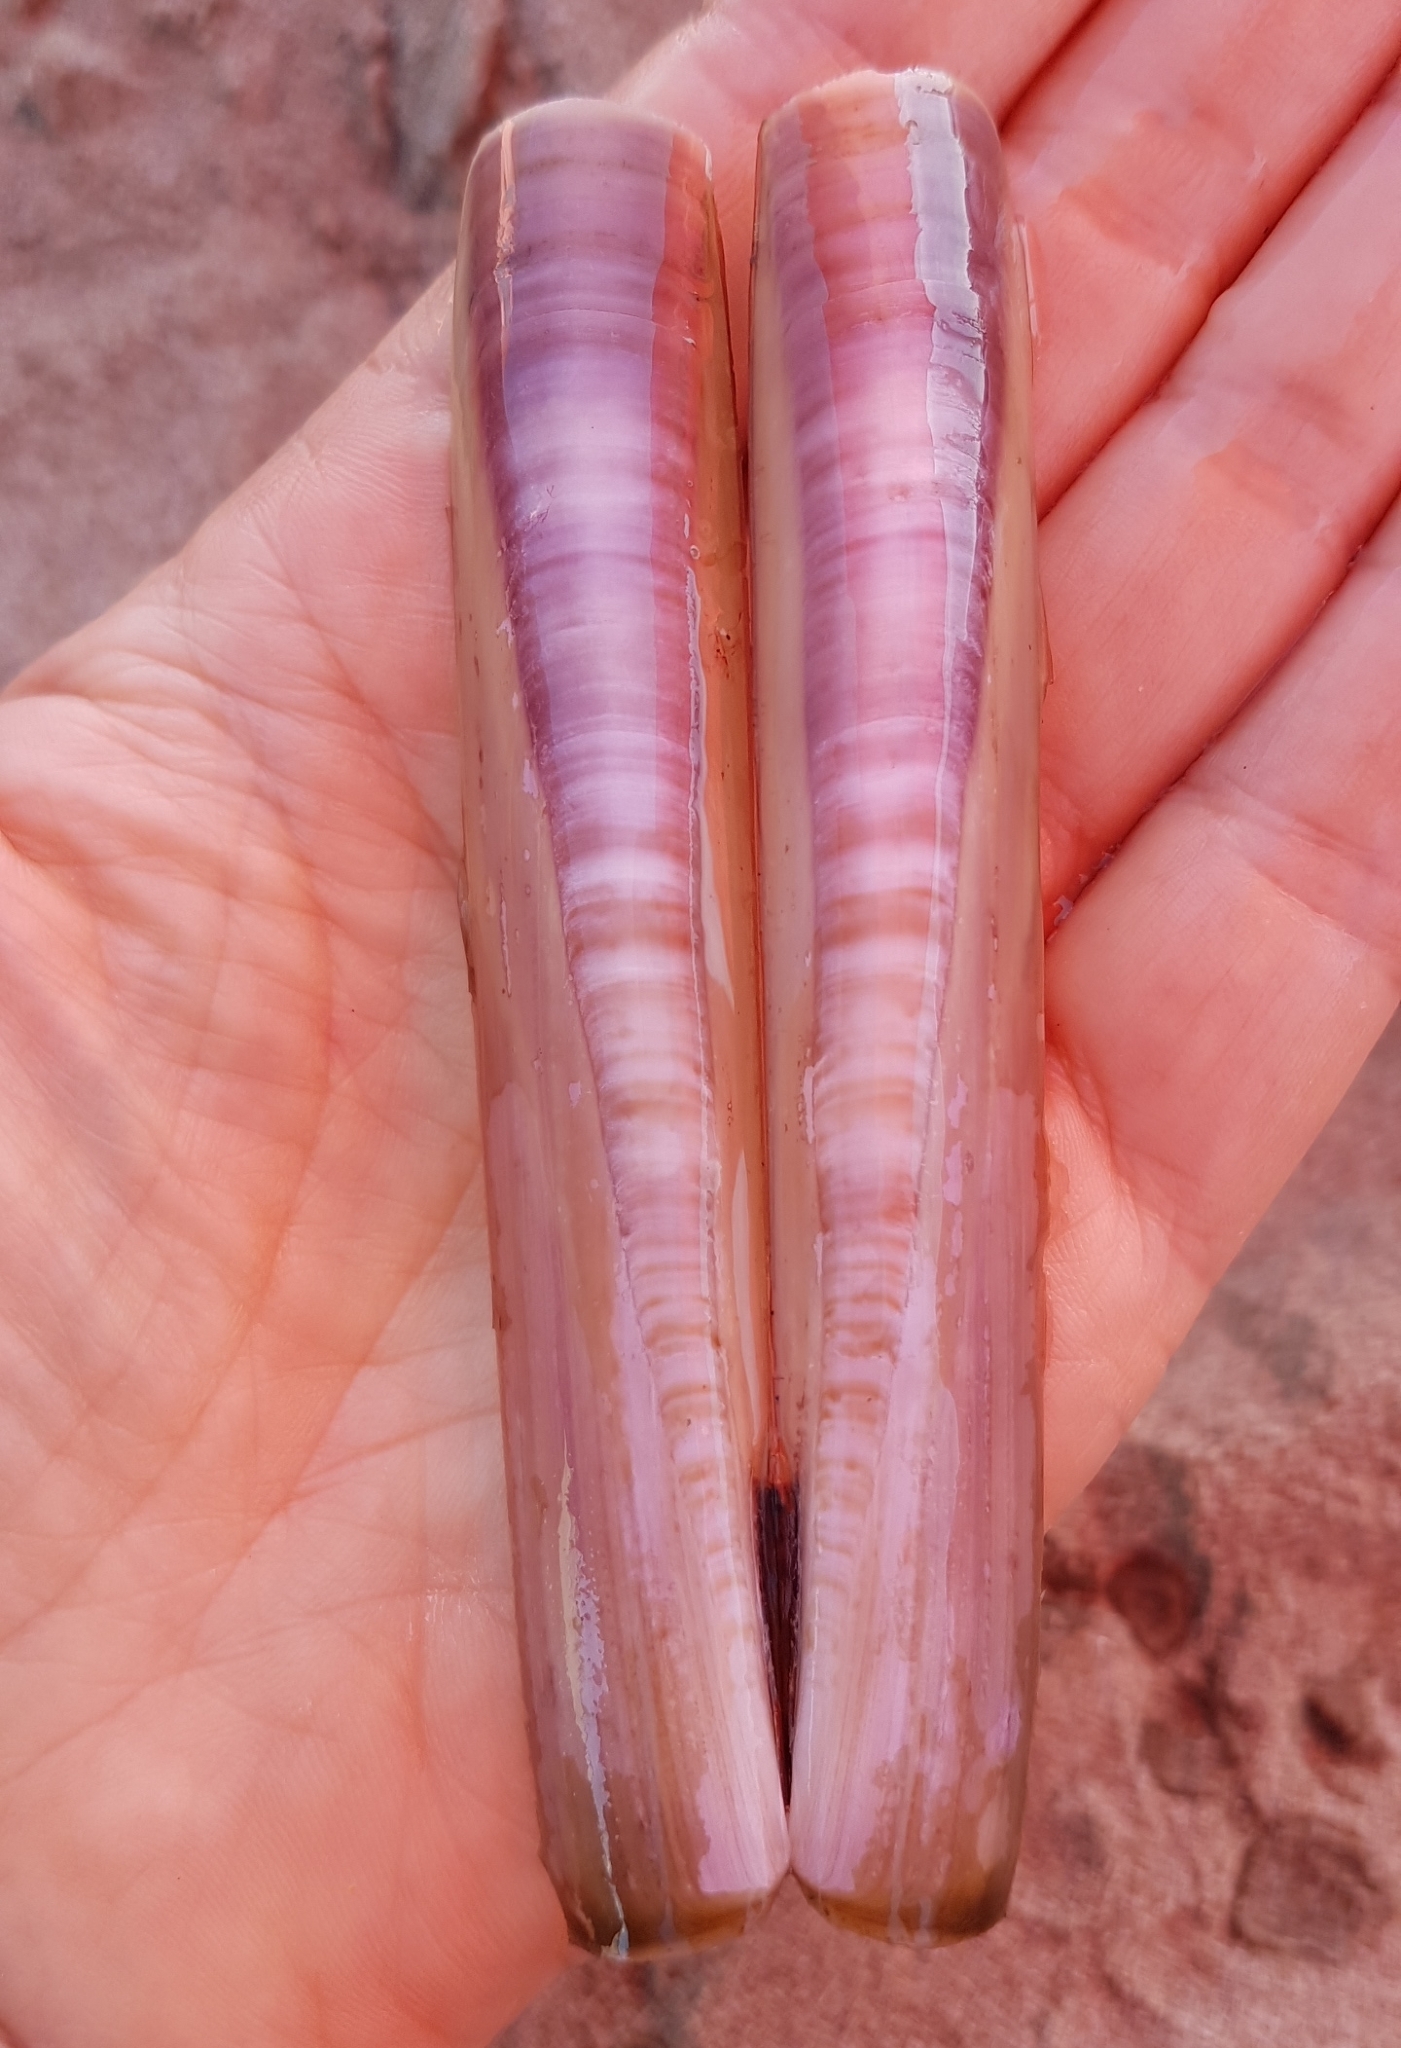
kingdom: Animalia
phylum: Mollusca
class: Bivalvia
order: Adapedonta
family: Pharidae
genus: Ensis
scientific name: Ensis minor
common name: Minor jackknife clam
